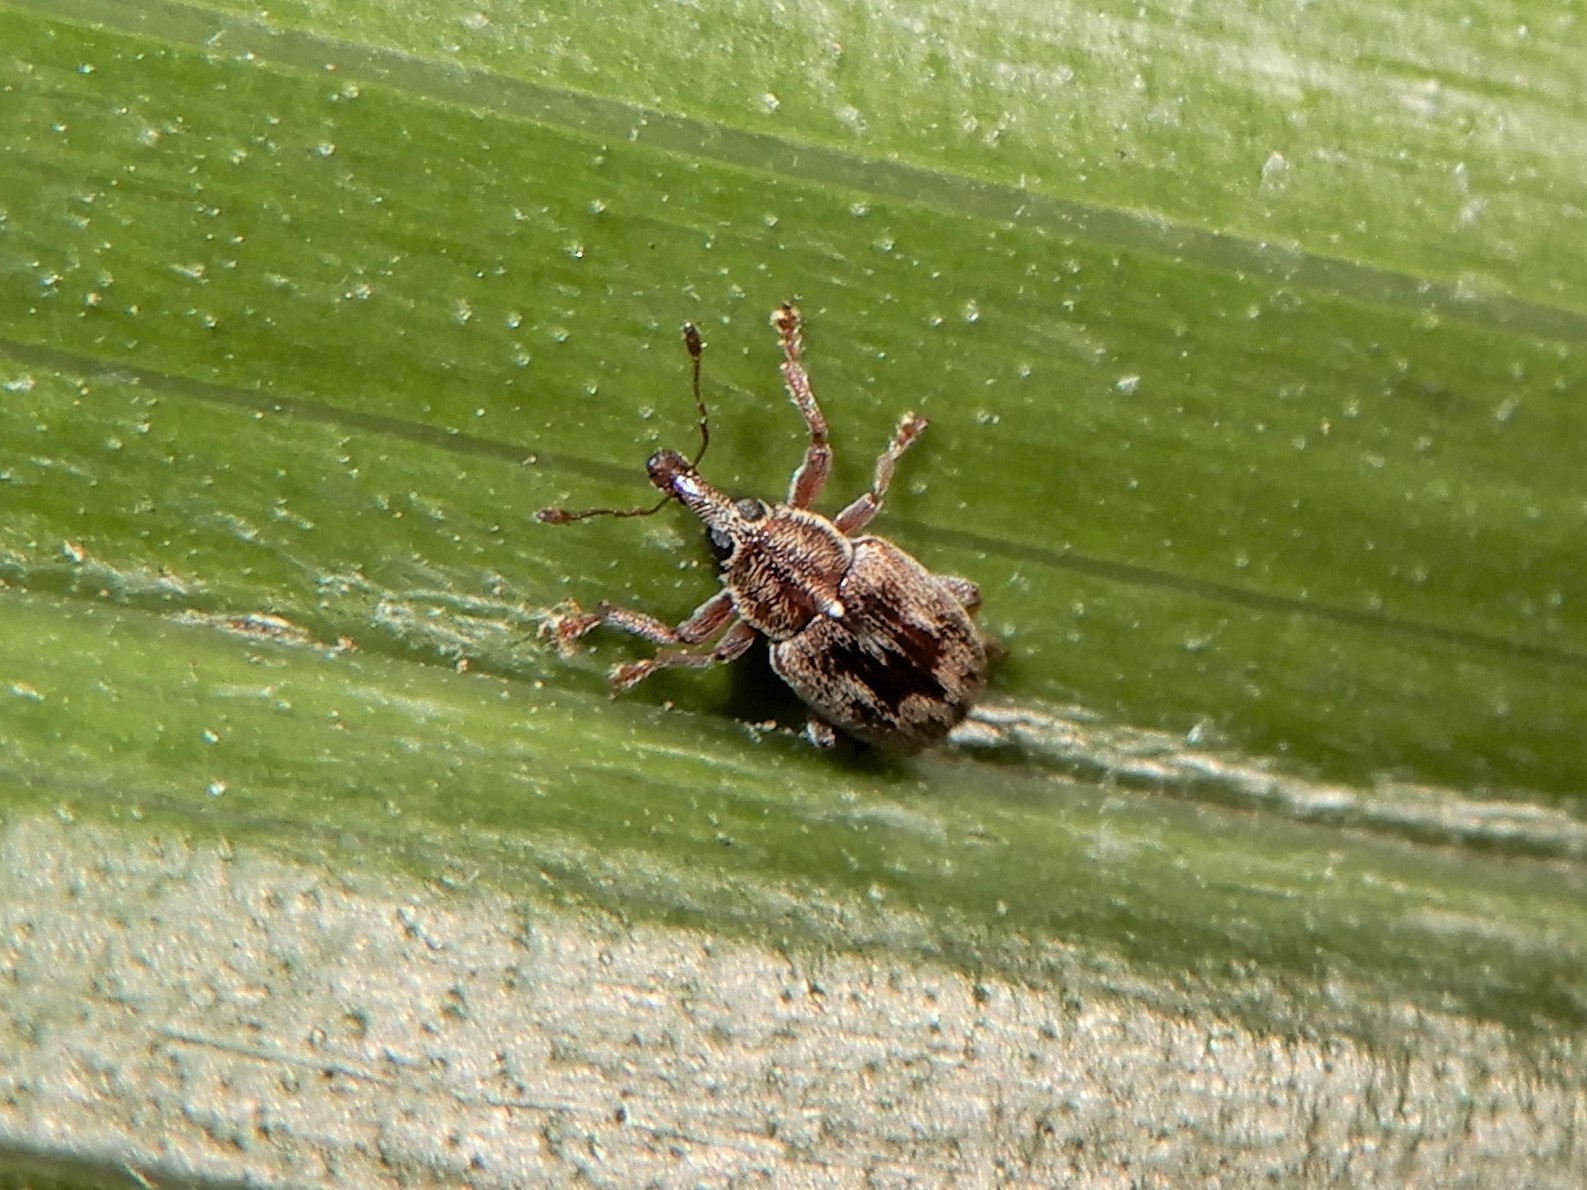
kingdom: Animalia
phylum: Arthropoda
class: Insecta
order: Coleoptera
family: Curculionidae
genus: Neomycta
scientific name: Neomycta rubida
